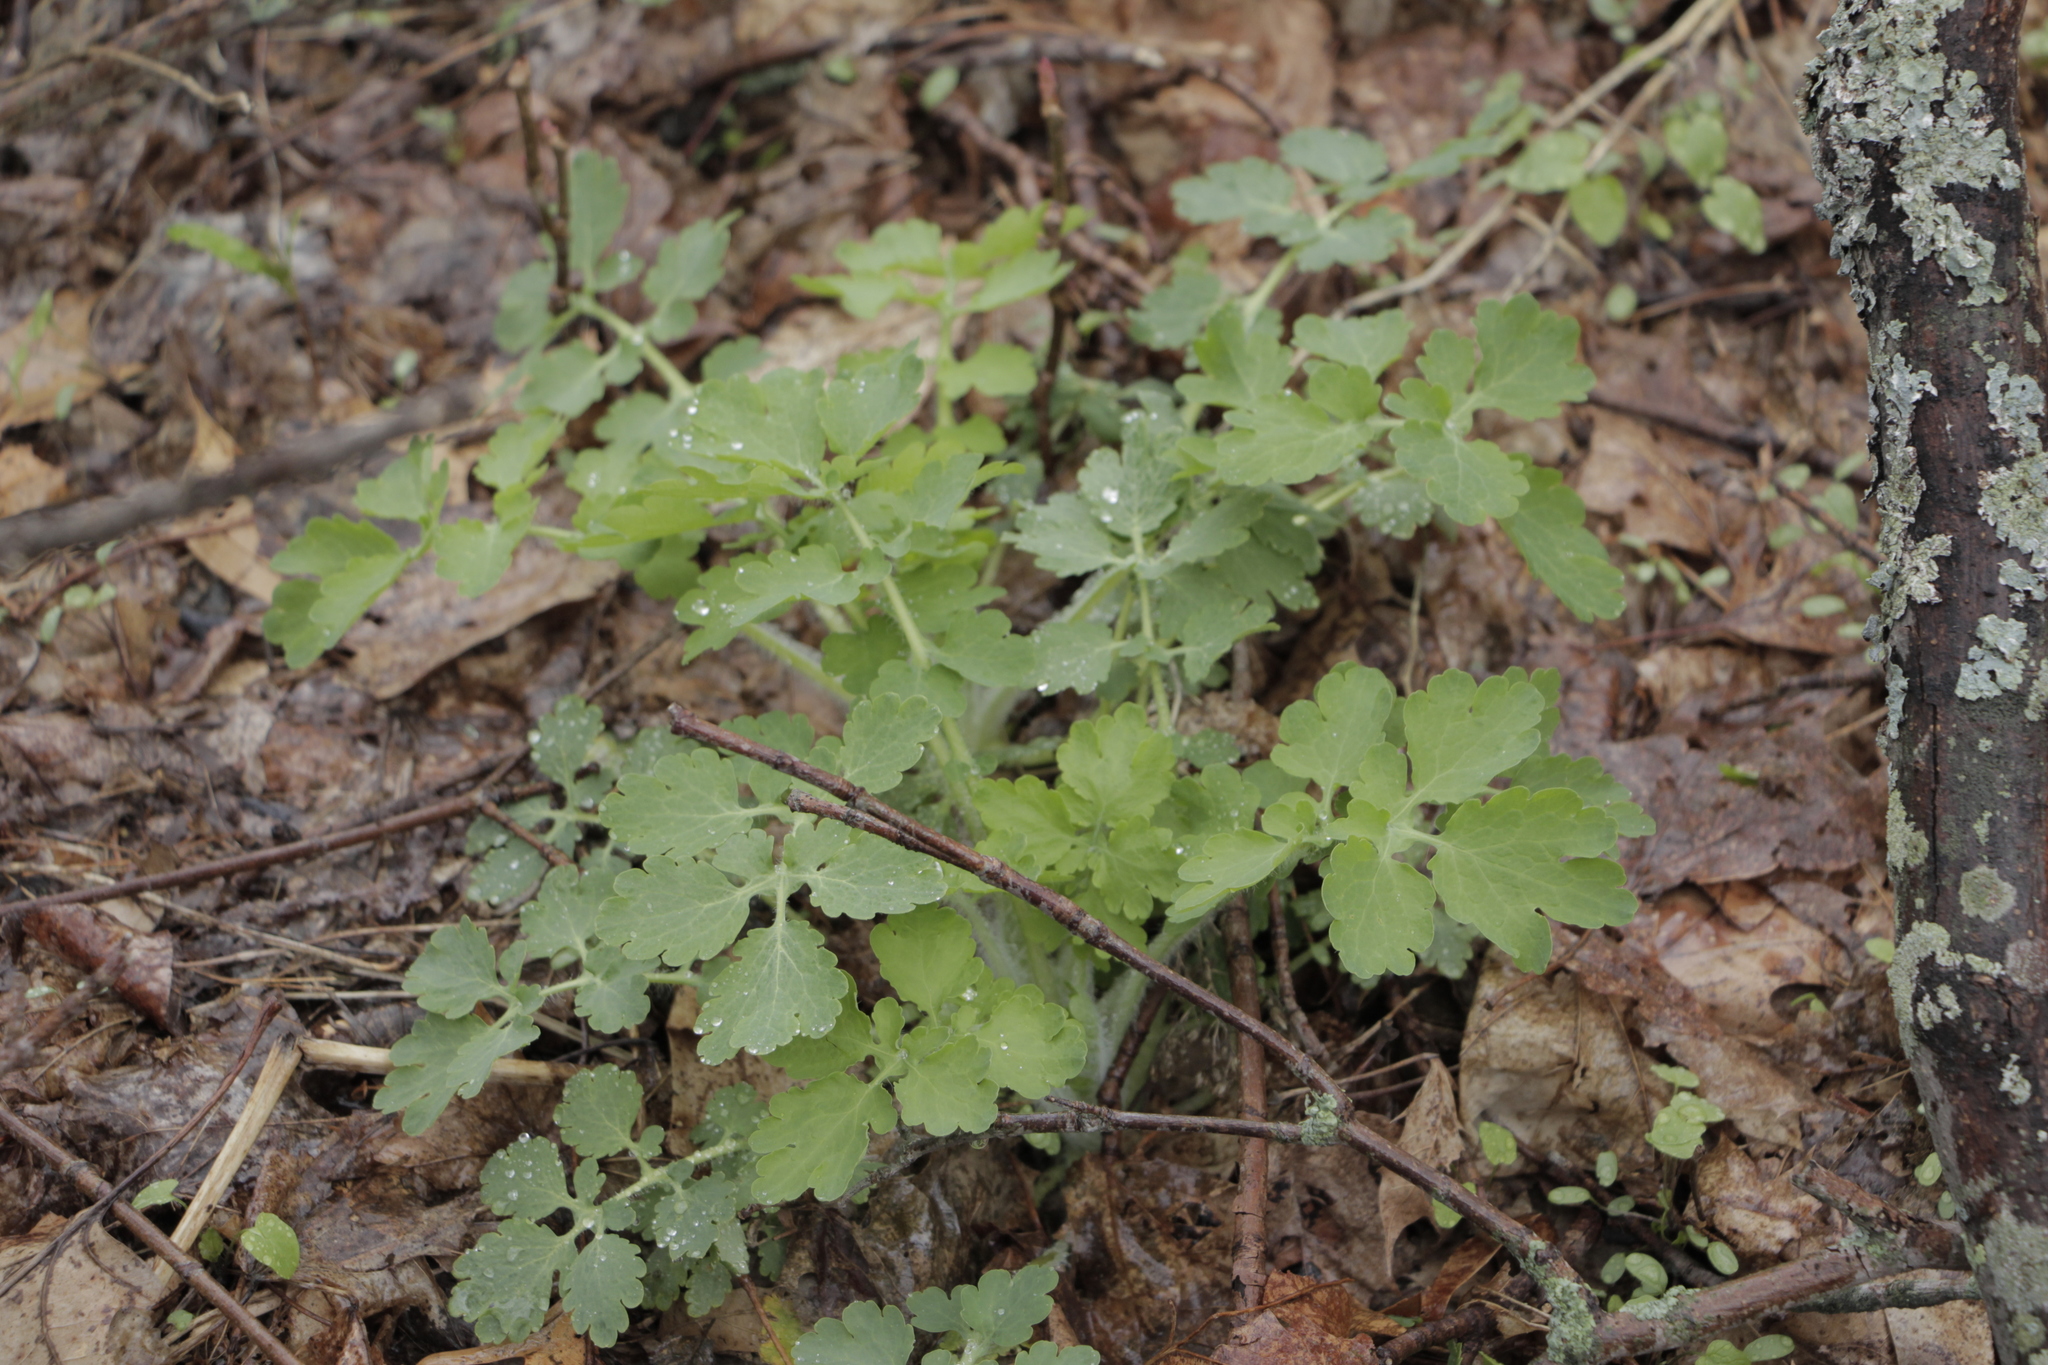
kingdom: Plantae
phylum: Tracheophyta
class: Magnoliopsida
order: Ranunculales
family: Papaveraceae
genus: Chelidonium
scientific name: Chelidonium majus
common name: Greater celandine
